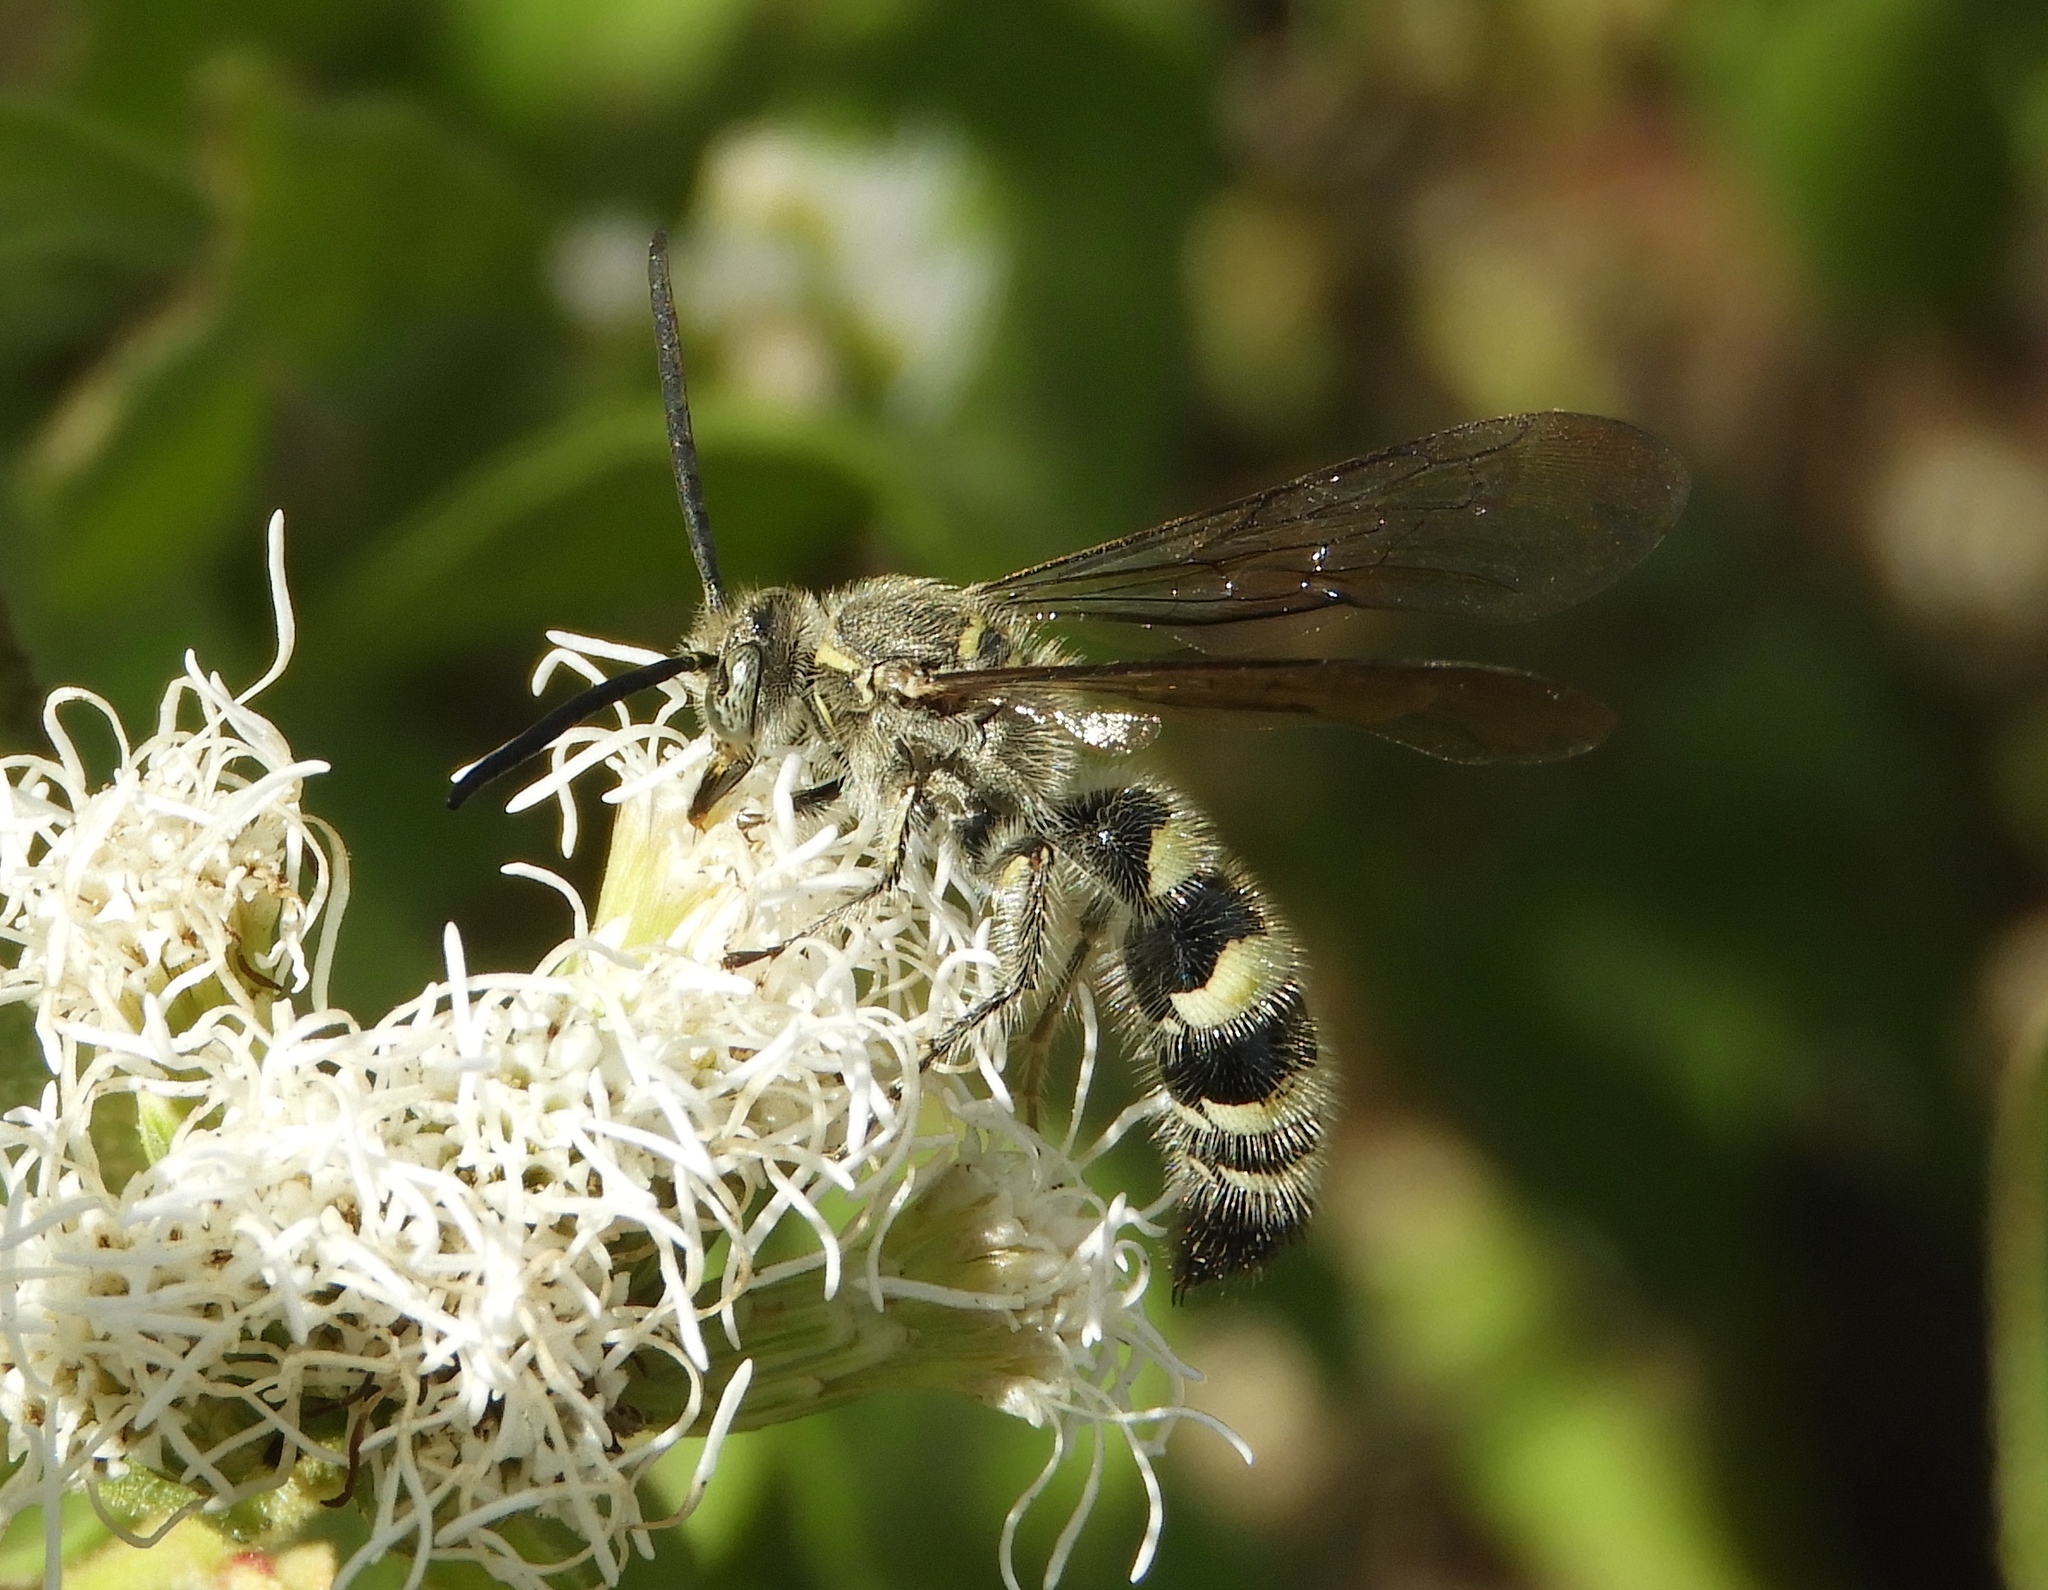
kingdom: Animalia
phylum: Arthropoda
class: Insecta
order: Hymenoptera
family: Scoliidae
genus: Dielis
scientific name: Dielis tolteca
